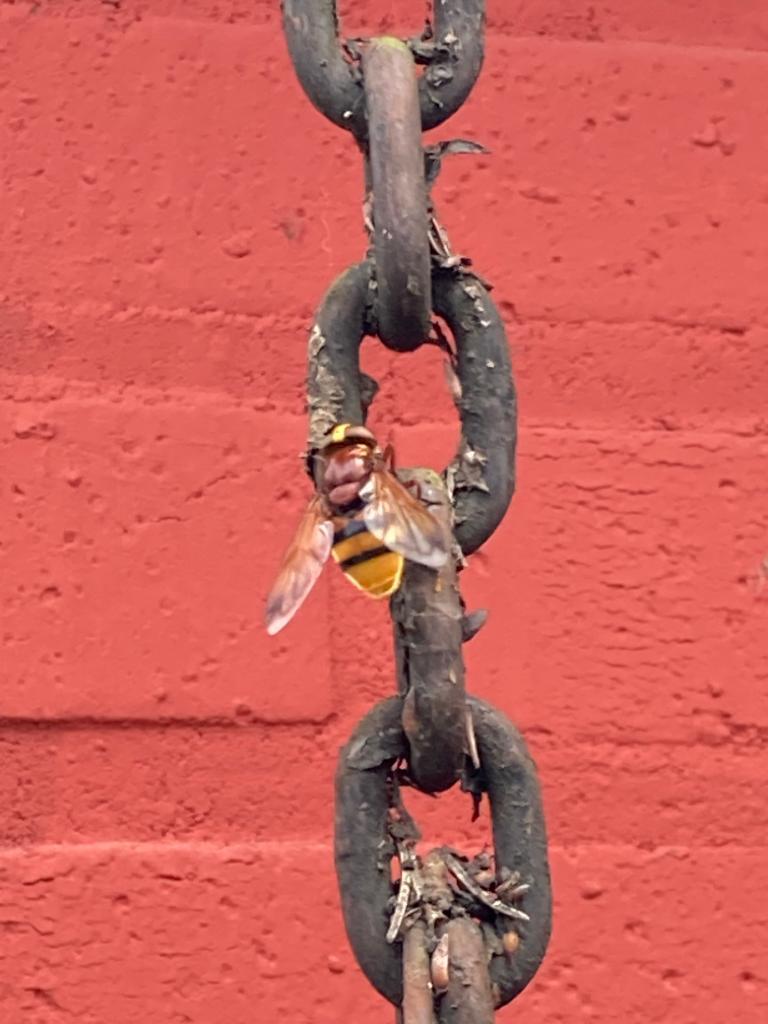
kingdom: Animalia
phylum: Arthropoda
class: Insecta
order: Diptera
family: Syrphidae
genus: Volucella
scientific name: Volucella zonaria
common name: Hornet hoverfly
